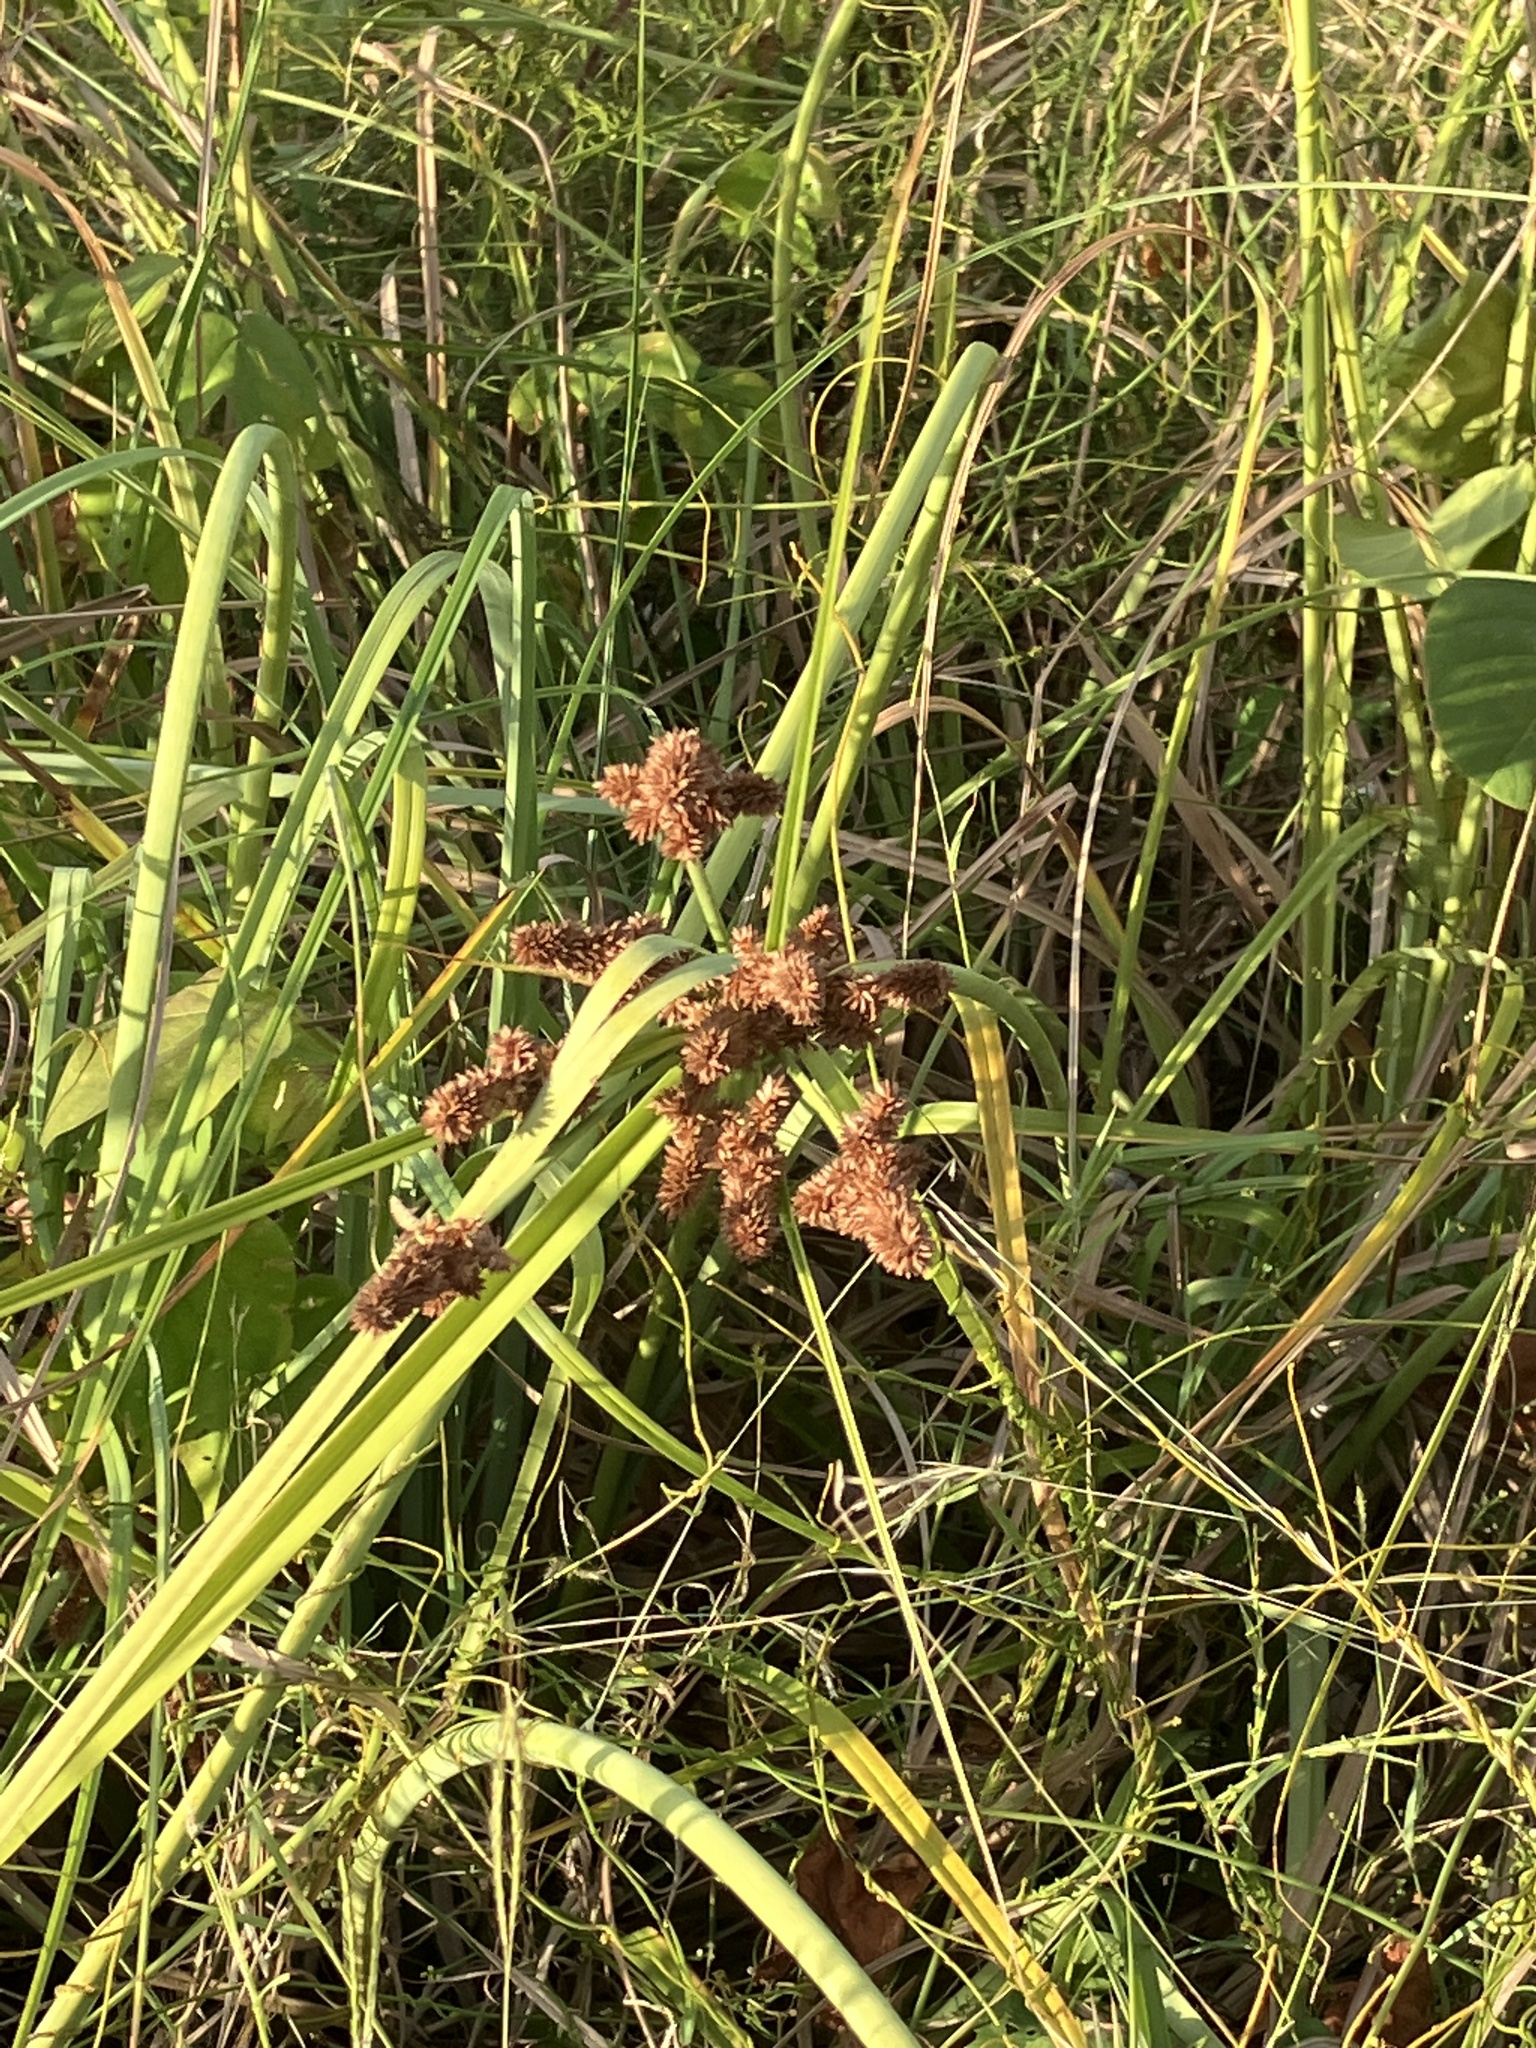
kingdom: Plantae
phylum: Tracheophyta
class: Liliopsida
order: Poales
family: Cyperaceae
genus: Cyperus
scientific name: Cyperus ligularis
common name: Swamp flat sedge
